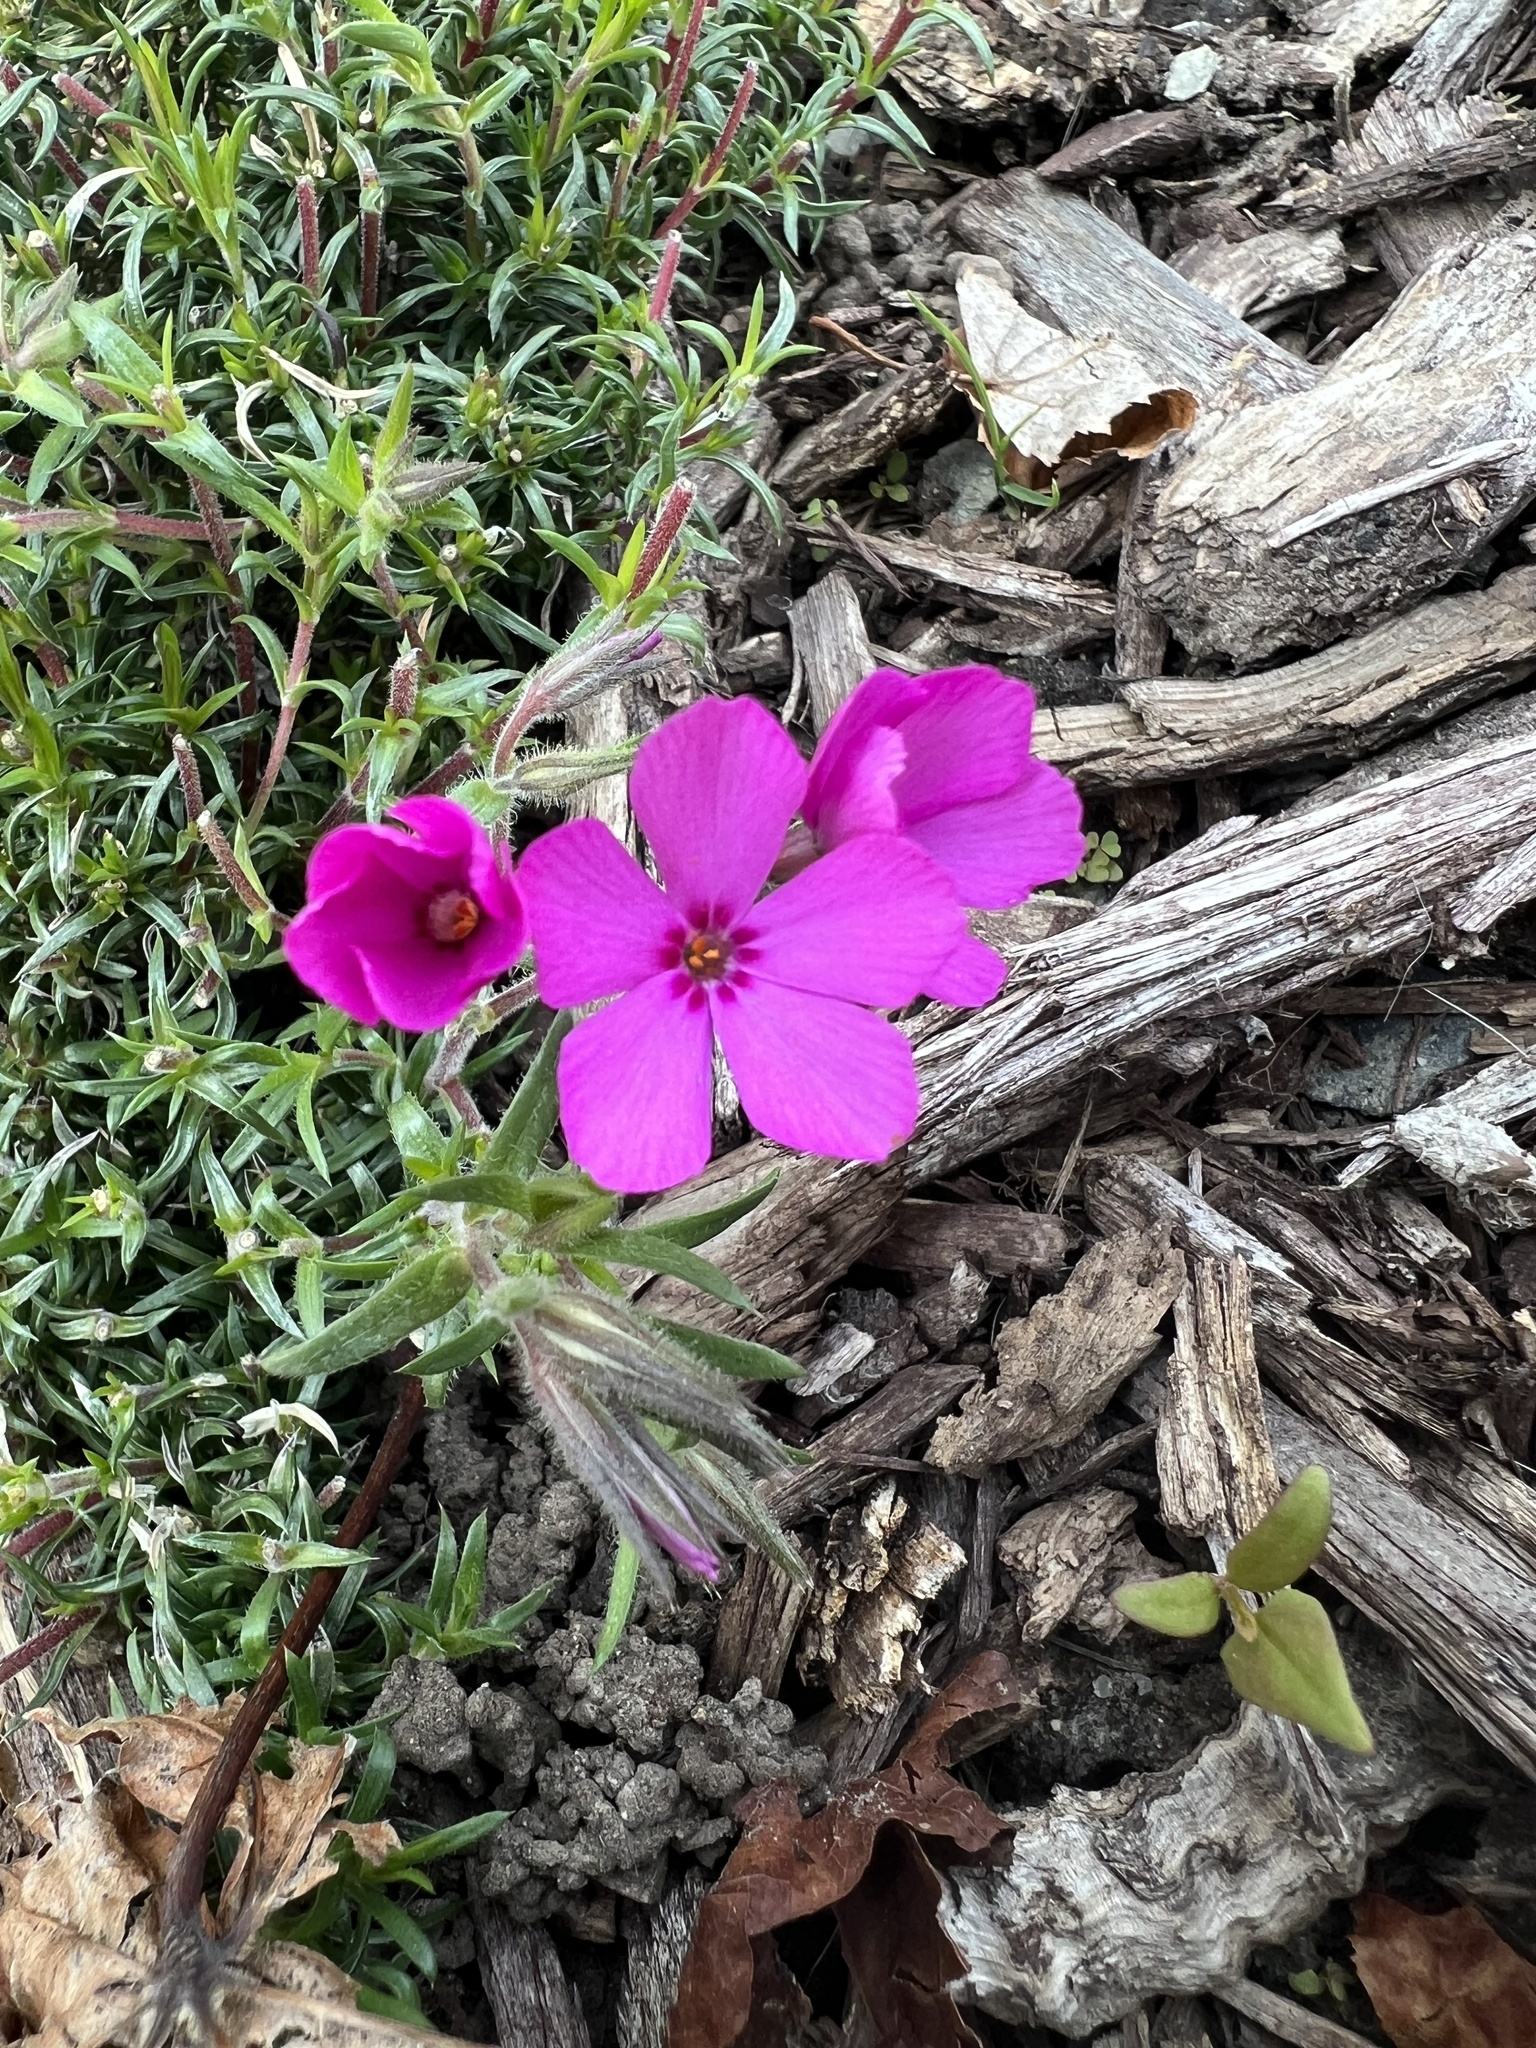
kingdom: Plantae
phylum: Tracheophyta
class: Magnoliopsida
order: Ericales
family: Polemoniaceae
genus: Phlox
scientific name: Phlox subulata
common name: Moss phlox
